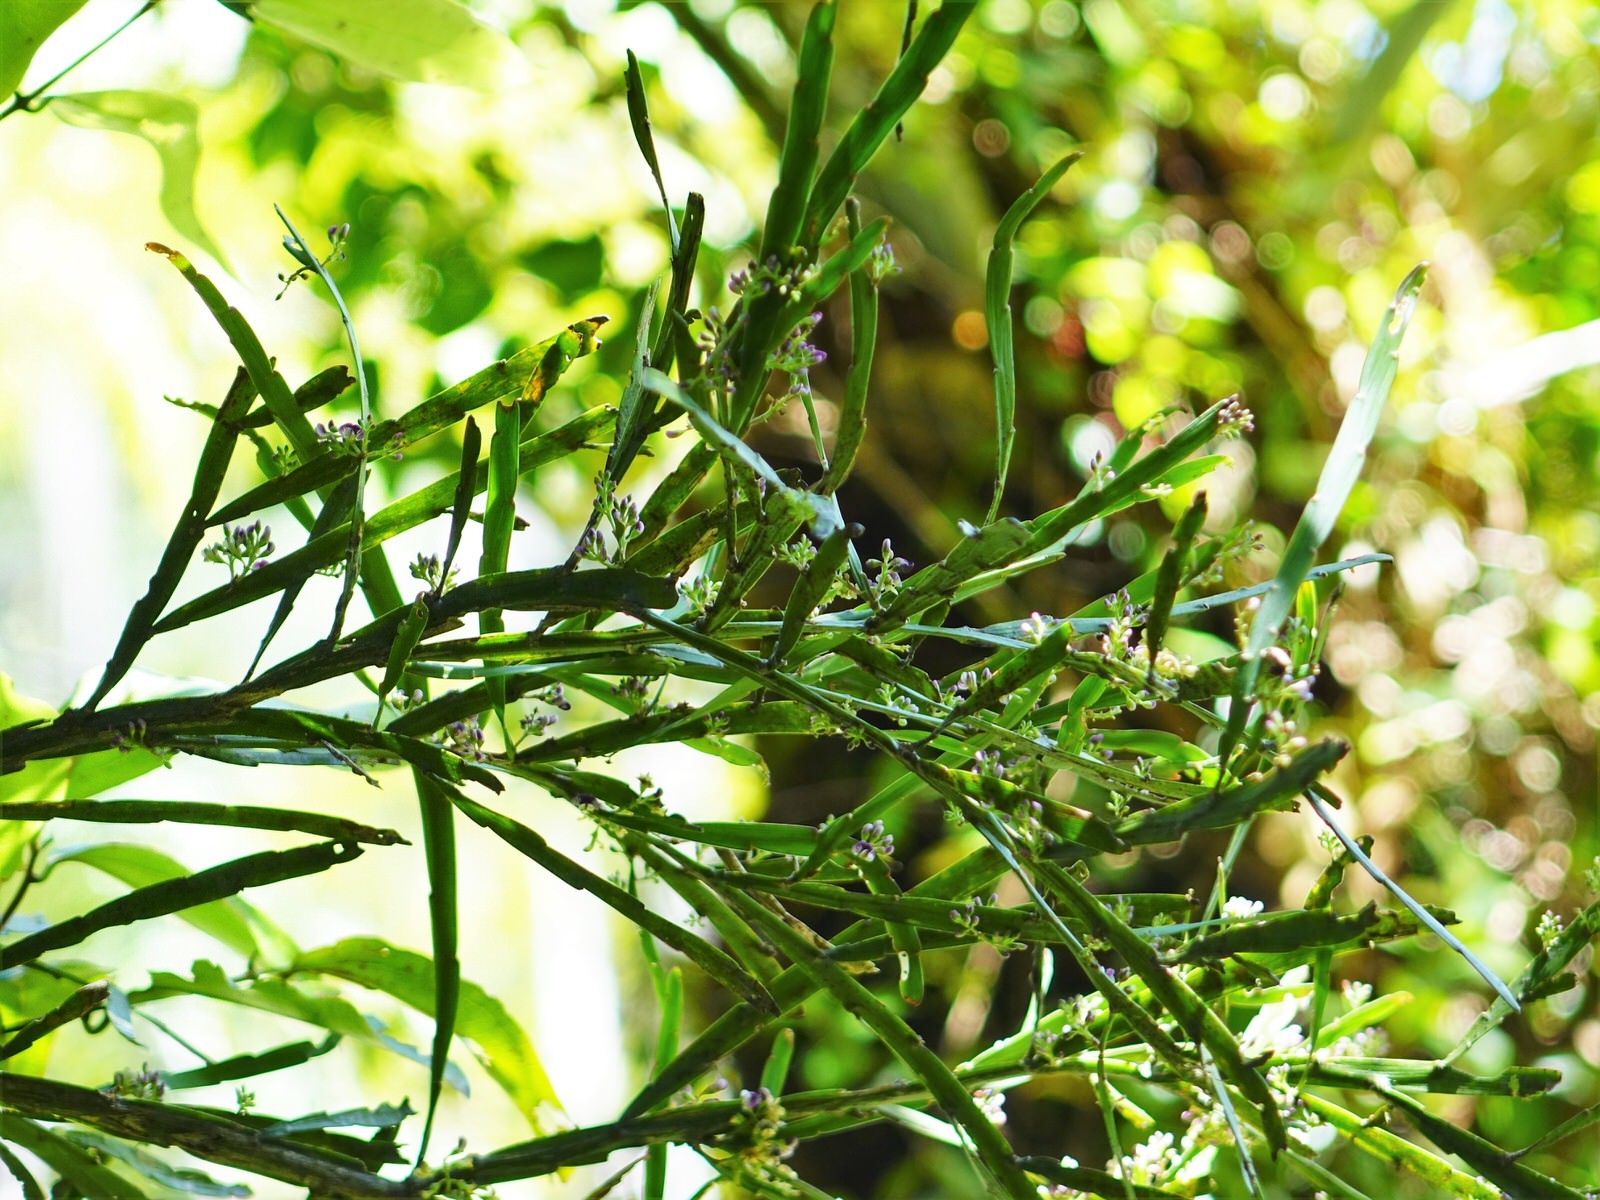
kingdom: Plantae
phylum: Tracheophyta
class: Magnoliopsida
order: Fabales
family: Fabaceae
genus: Carmichaelia
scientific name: Carmichaelia australis
